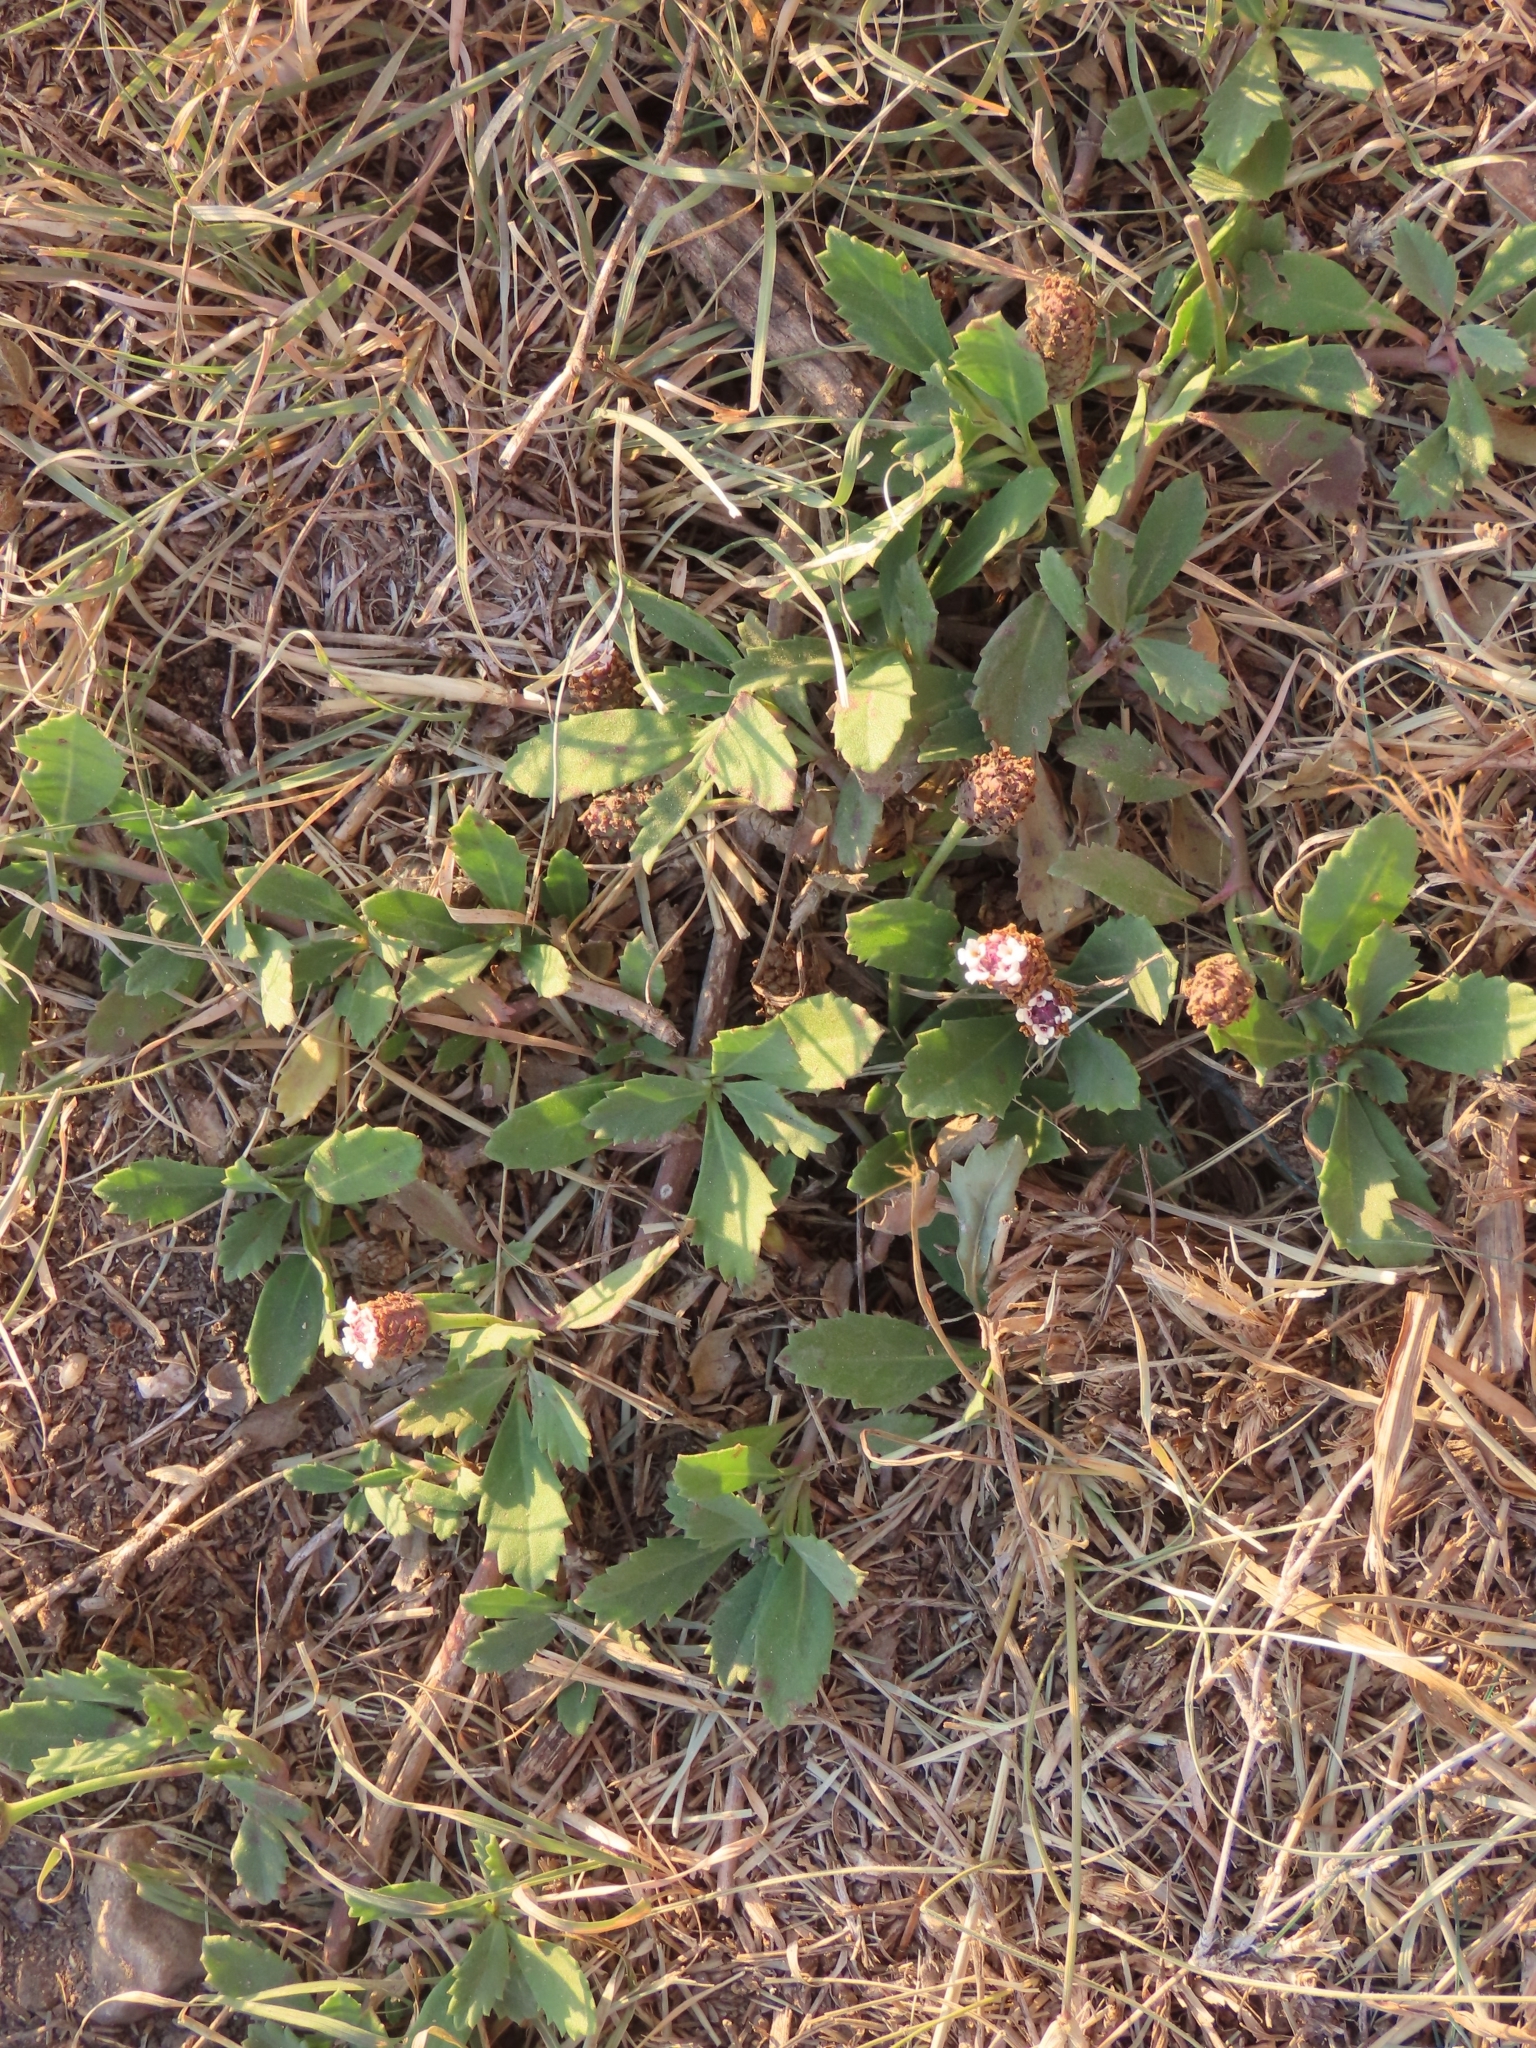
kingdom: Plantae
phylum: Tracheophyta
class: Magnoliopsida
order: Lamiales
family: Verbenaceae
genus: Phyla
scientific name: Phyla nodiflora
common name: Frogfruit
